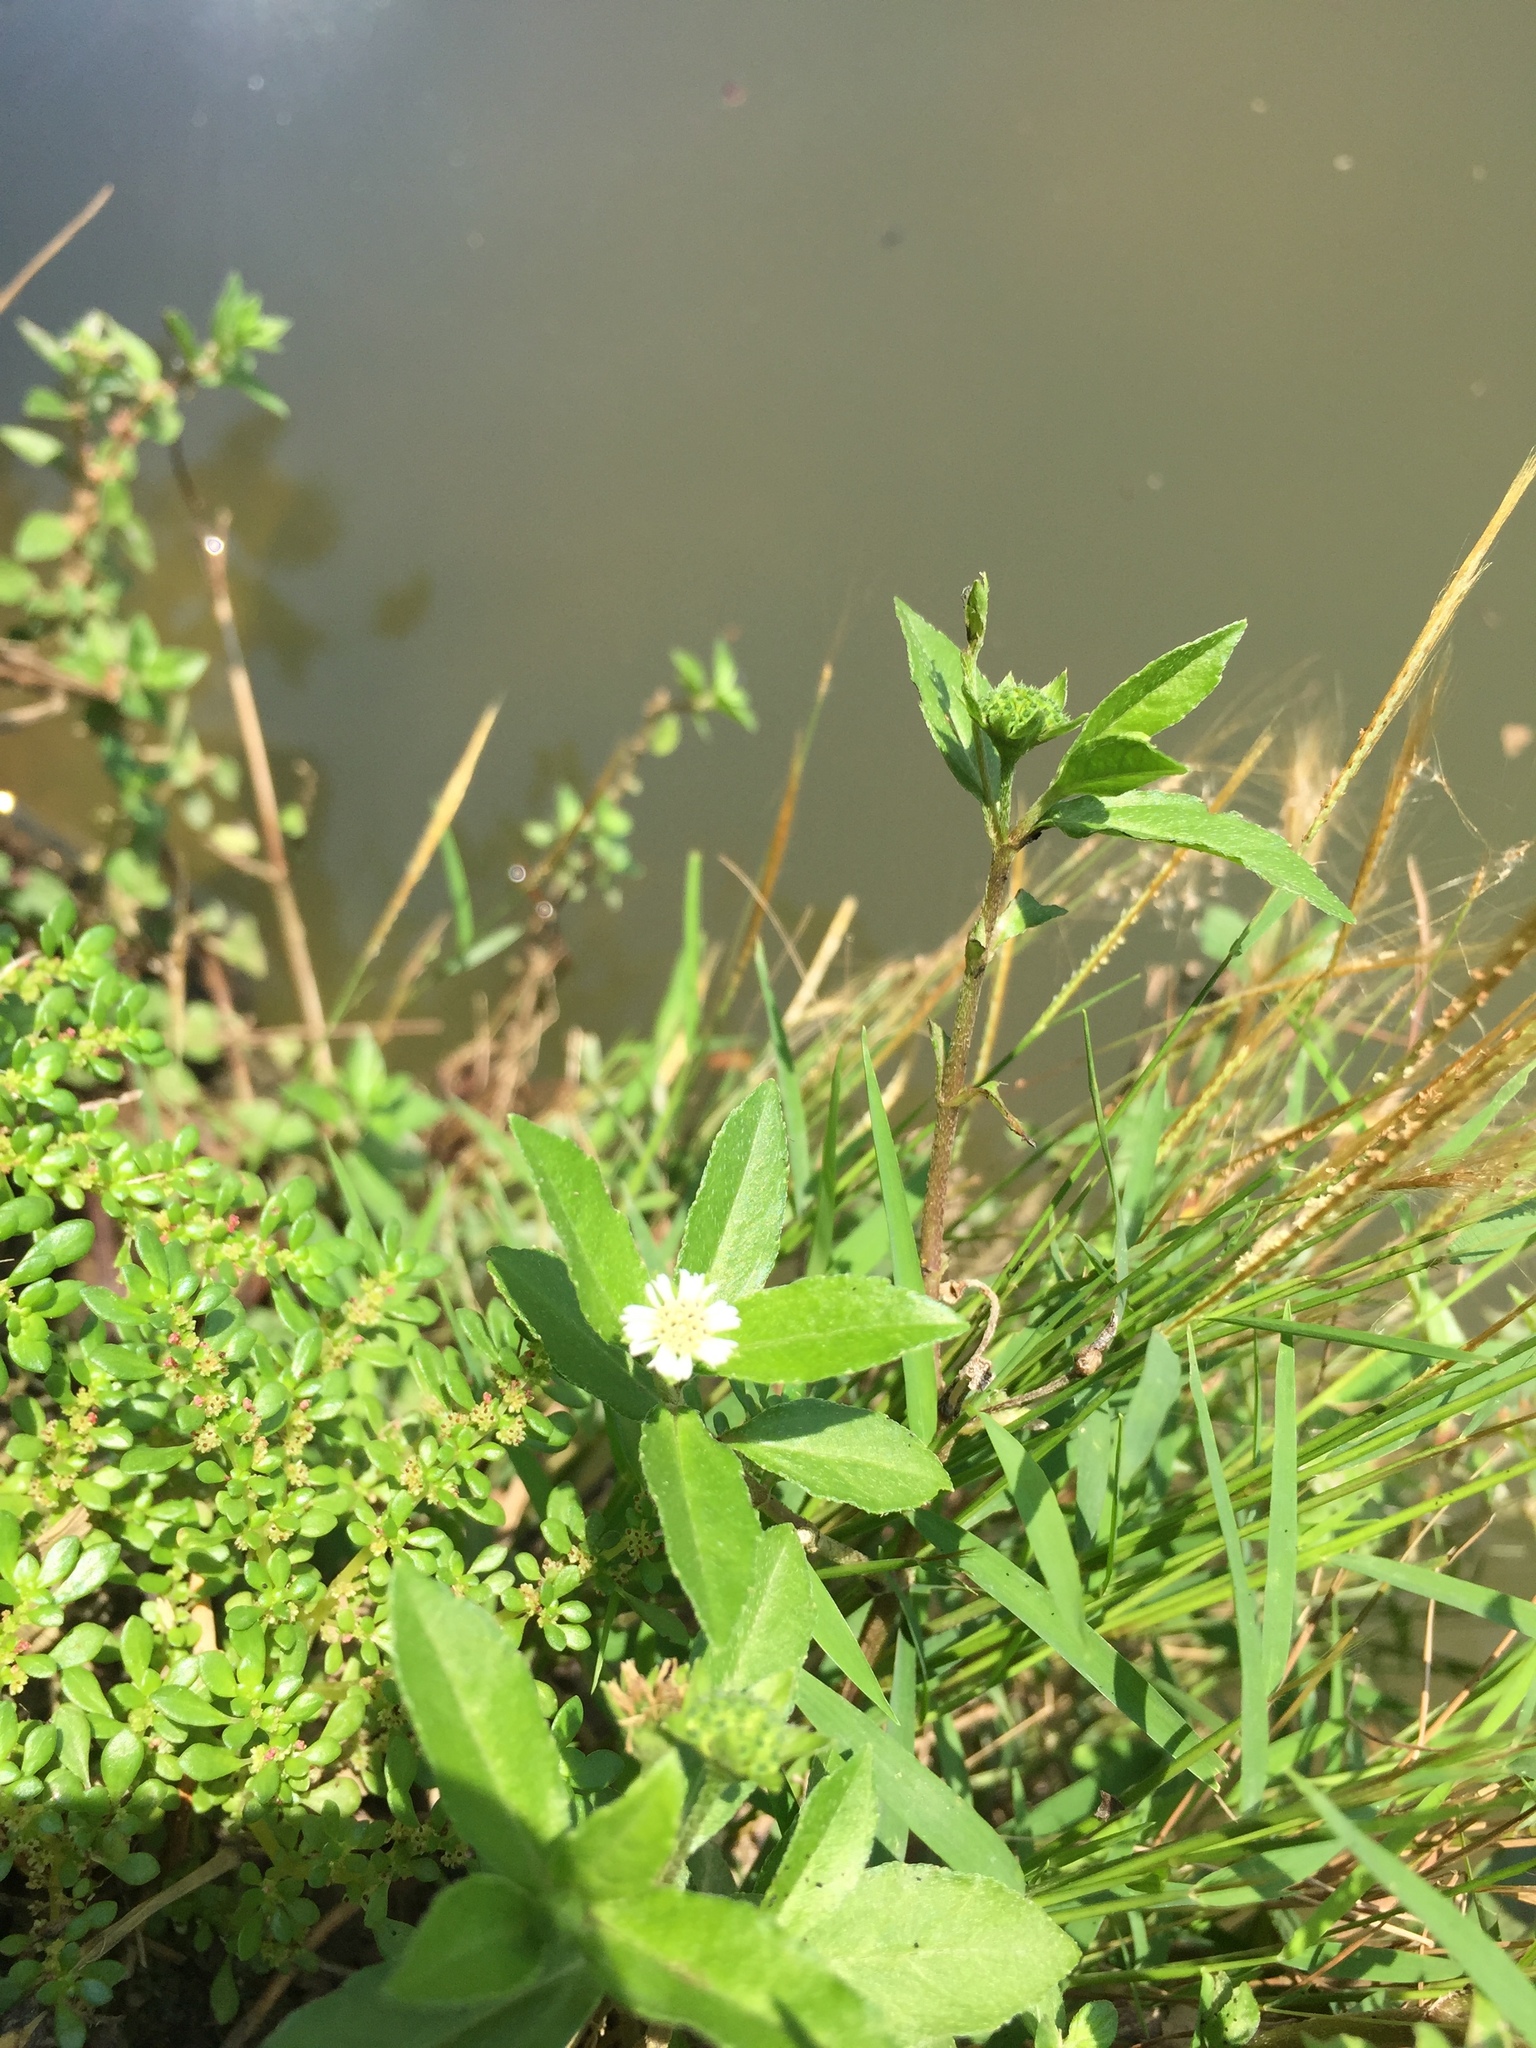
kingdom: Plantae
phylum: Tracheophyta
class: Magnoliopsida
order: Asterales
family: Asteraceae
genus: Eclipta
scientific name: Eclipta prostrata
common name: False daisy
